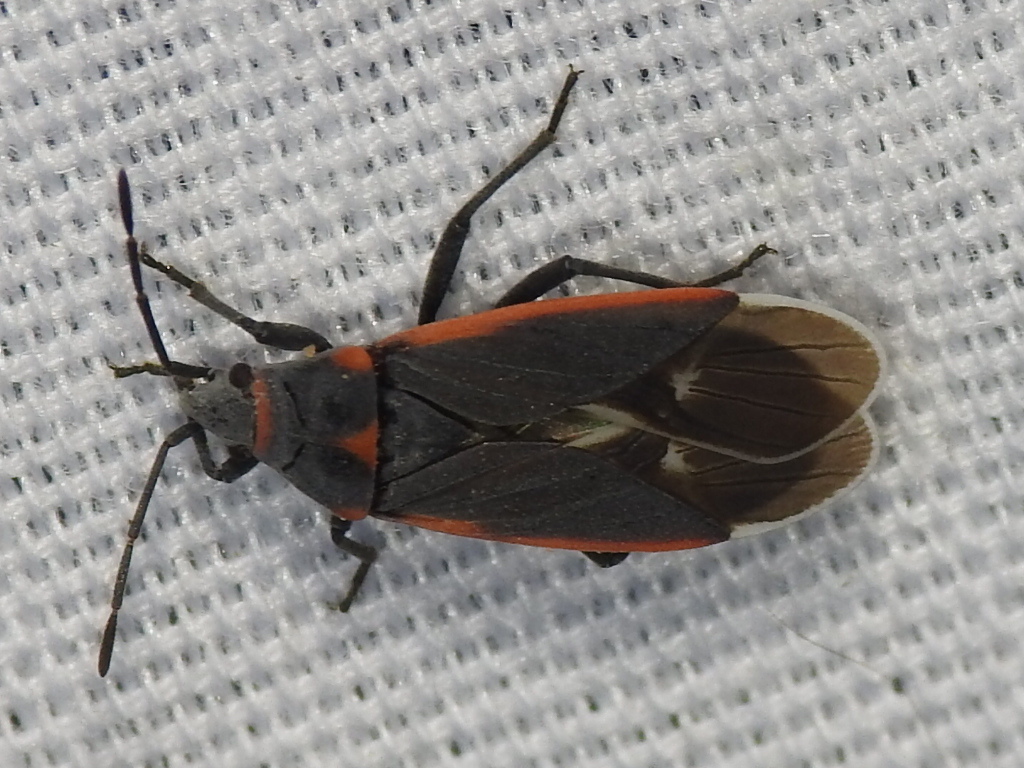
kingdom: Animalia
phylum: Arthropoda
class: Insecta
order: Hemiptera
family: Lygaeidae
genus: Melacoryphus
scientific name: Melacoryphus lateralis
